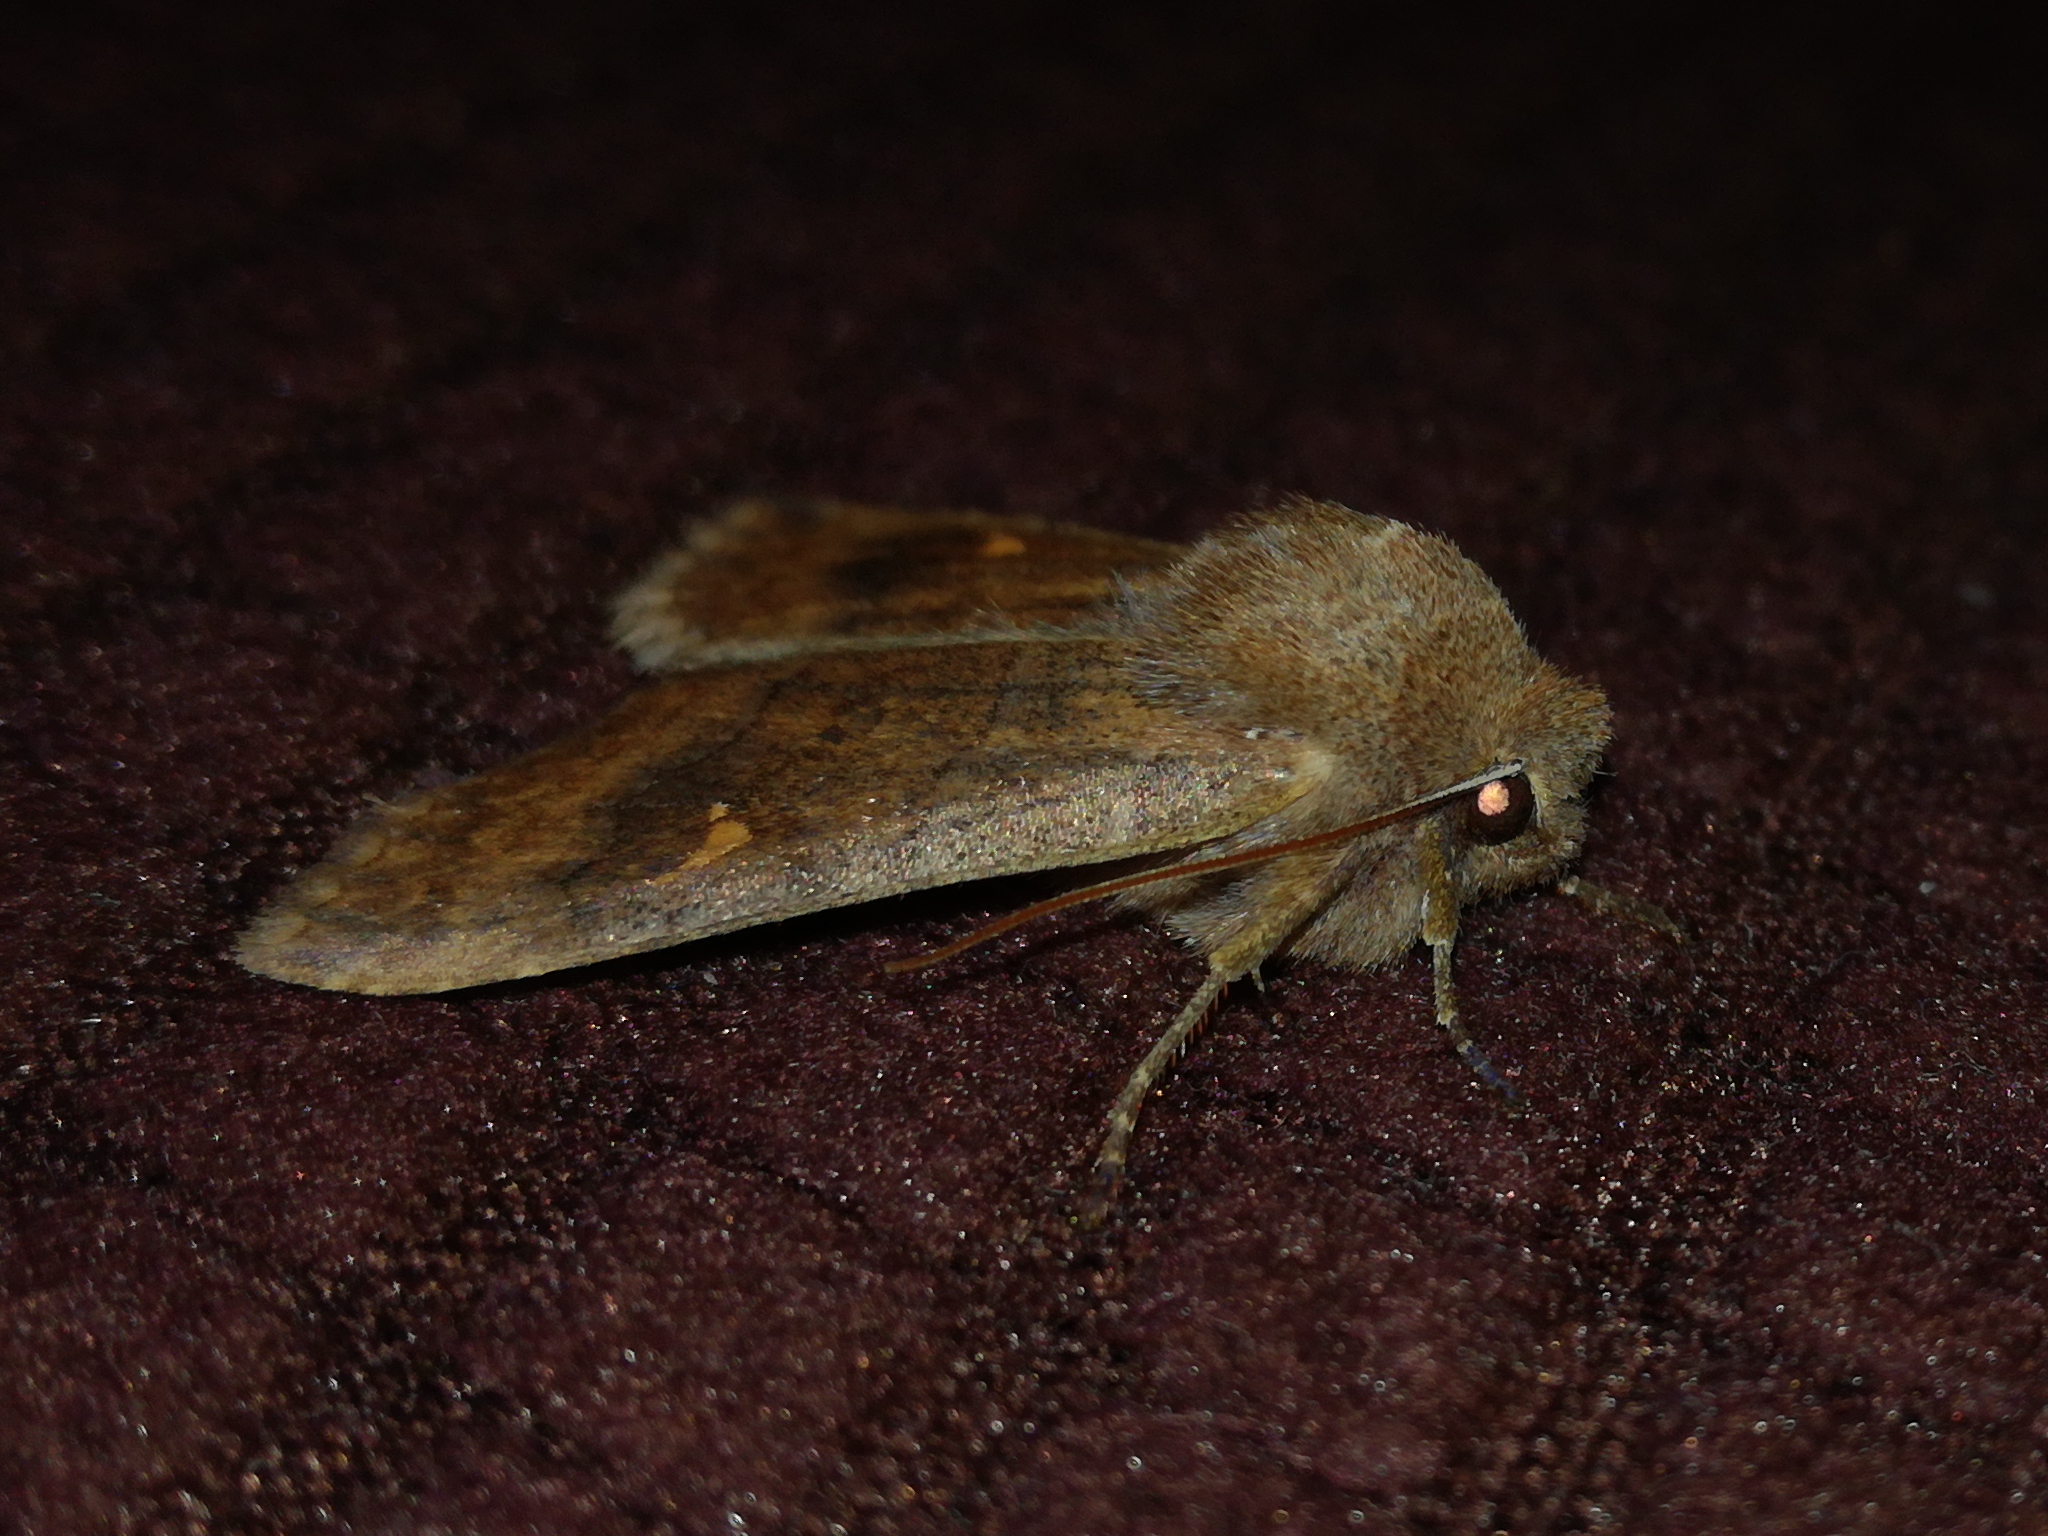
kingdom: Animalia
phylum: Arthropoda
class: Insecta
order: Lepidoptera
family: Noctuidae
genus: Eupsilia
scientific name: Eupsilia transversa
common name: Satellite
